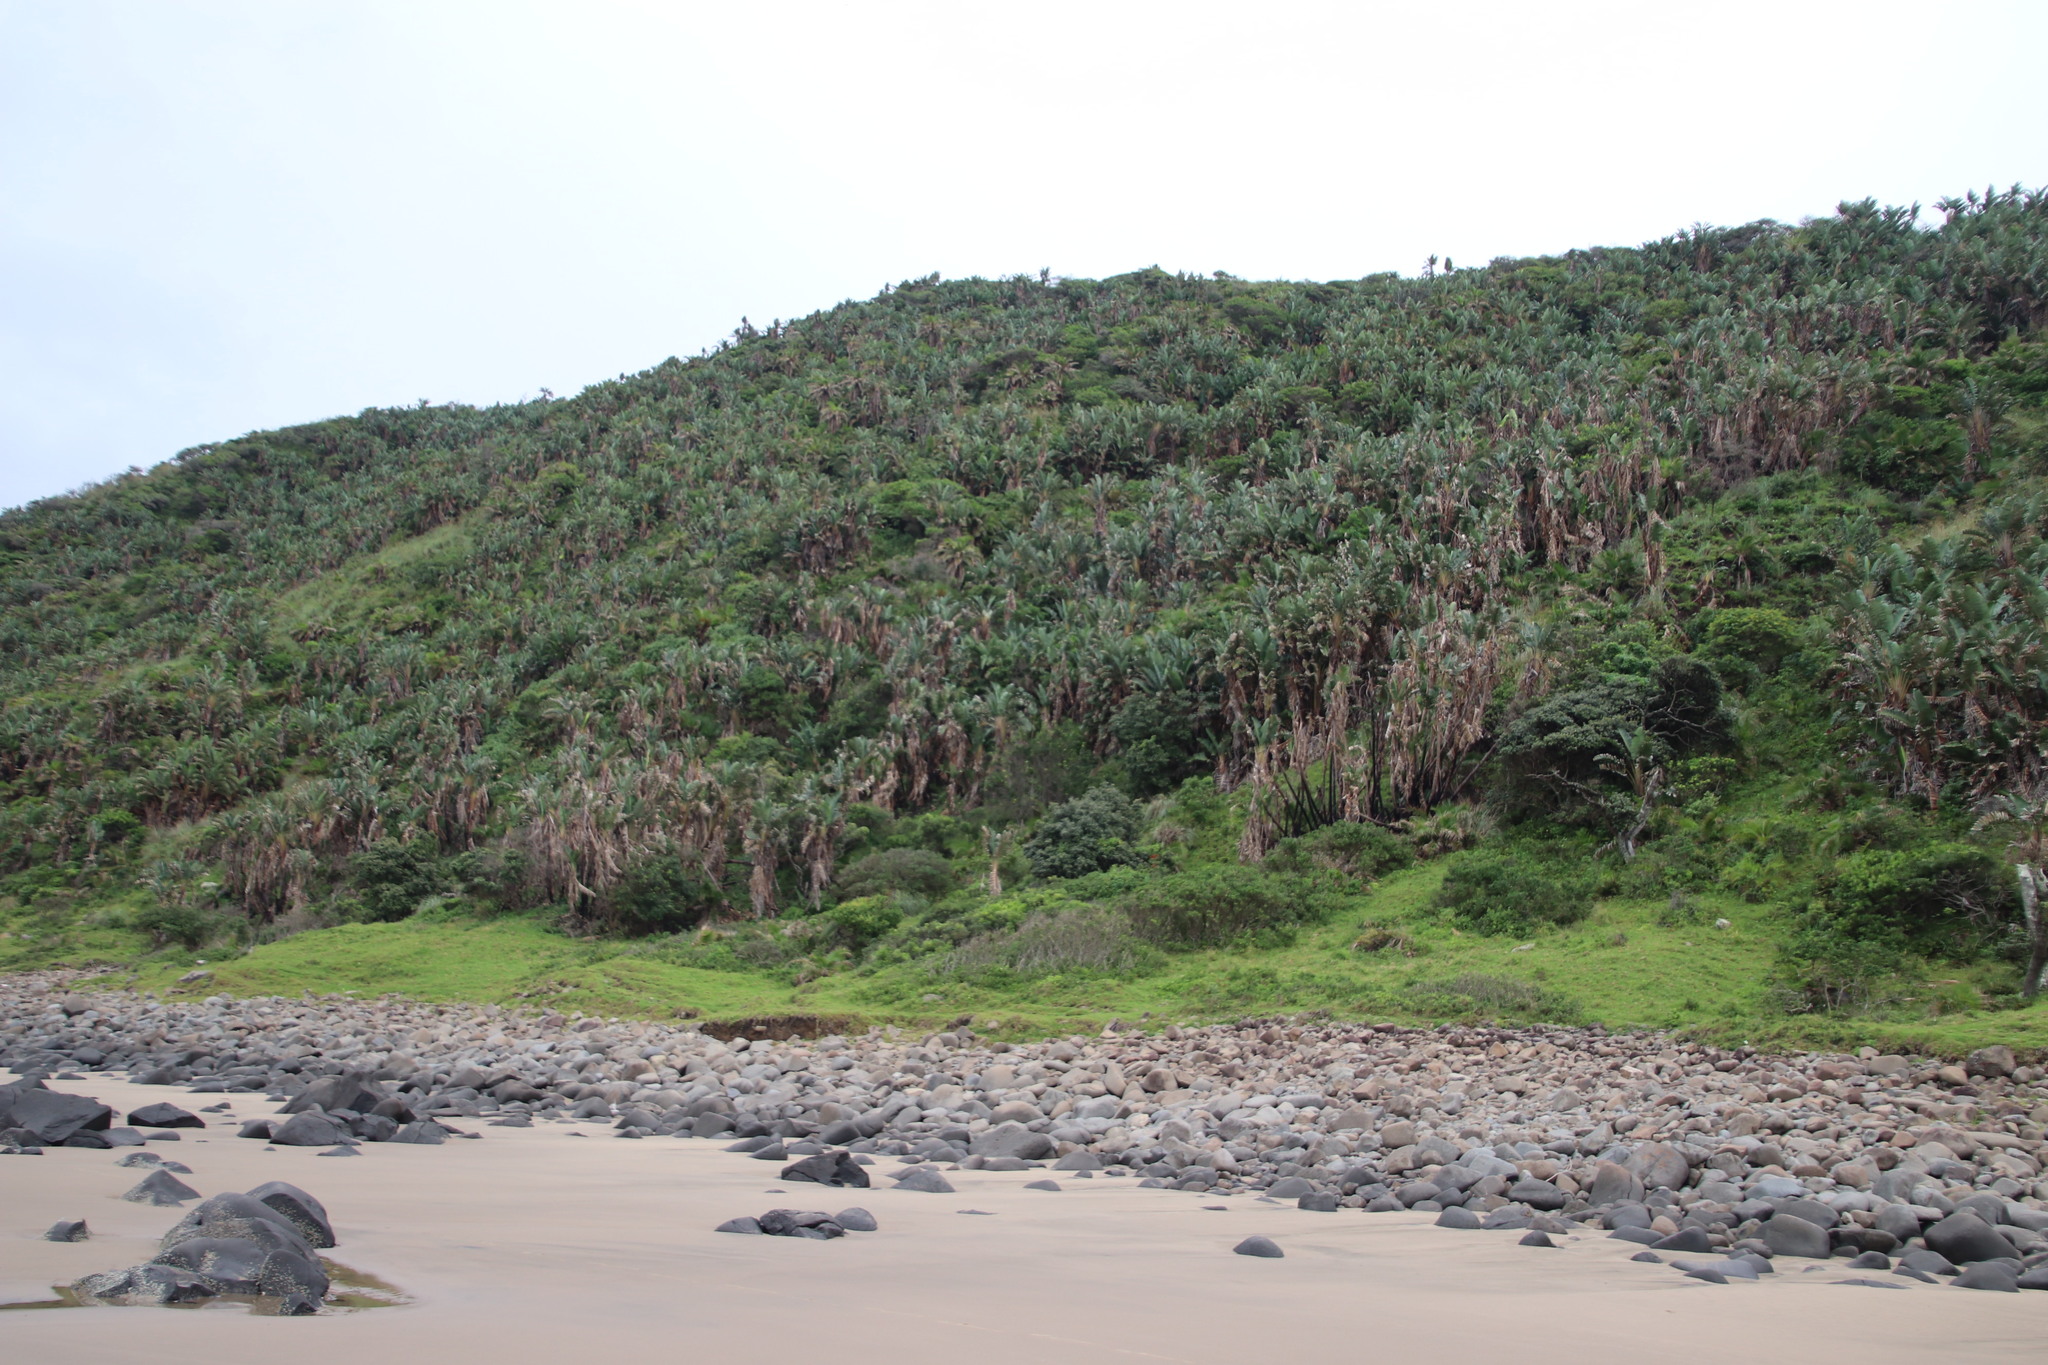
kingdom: Plantae
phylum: Tracheophyta
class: Liliopsida
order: Zingiberales
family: Strelitziaceae
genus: Strelitzia
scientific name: Strelitzia nicolai
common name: Bird-of-paradise tree
